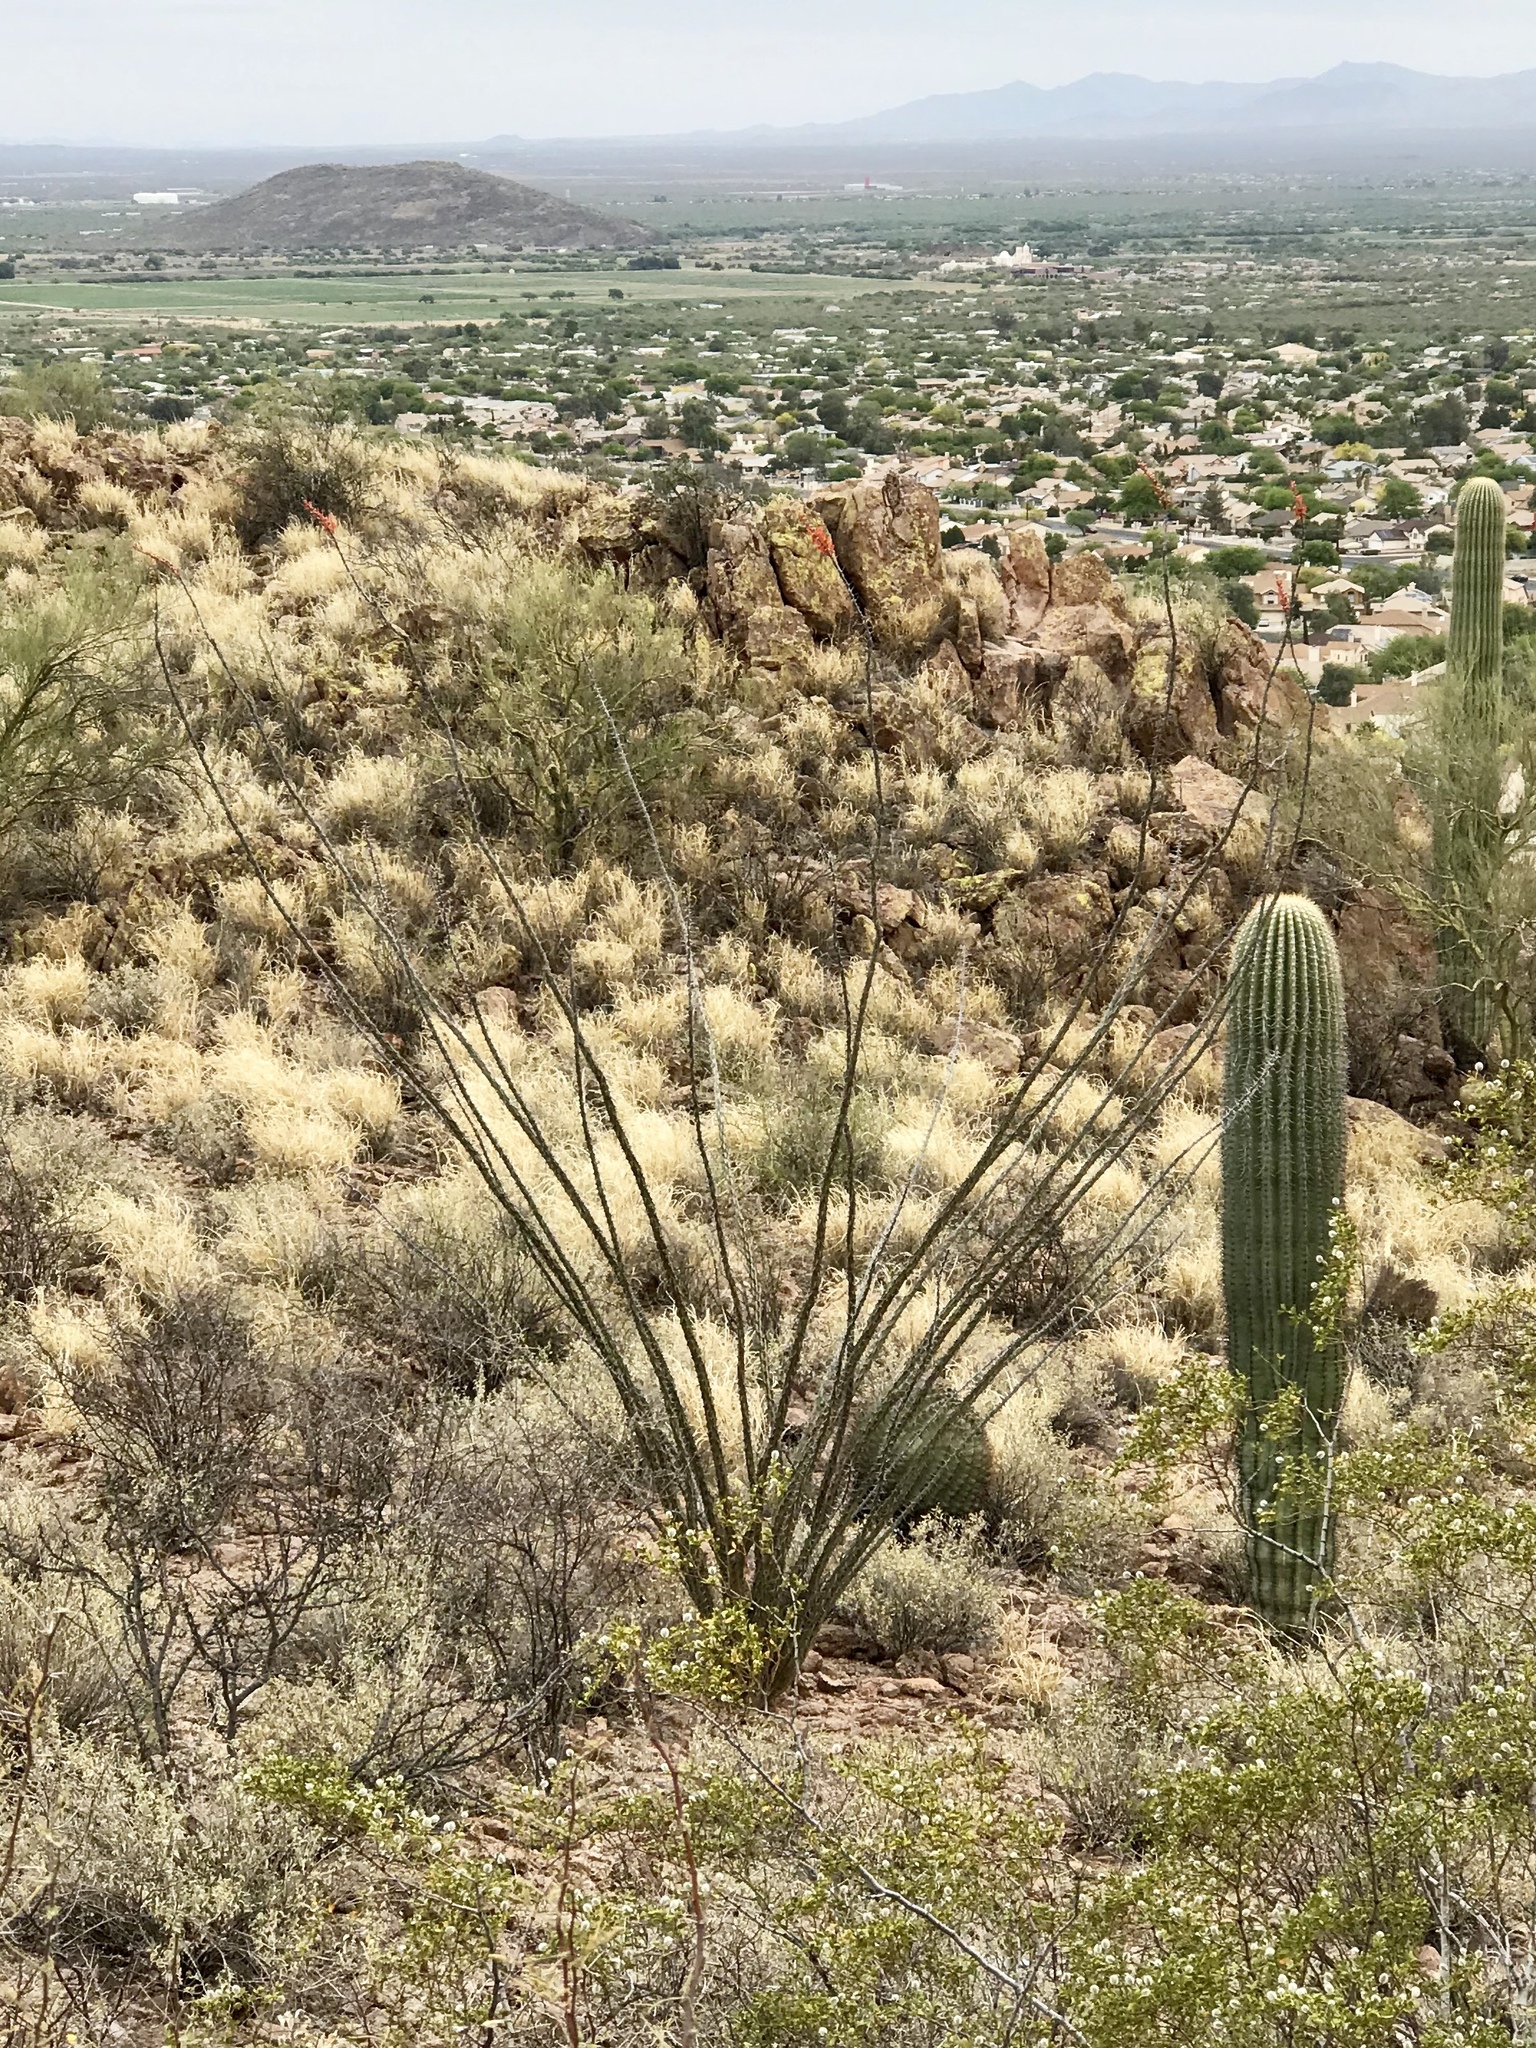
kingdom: Plantae
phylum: Tracheophyta
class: Magnoliopsida
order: Ericales
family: Fouquieriaceae
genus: Fouquieria
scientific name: Fouquieria splendens
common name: Vine-cactus
